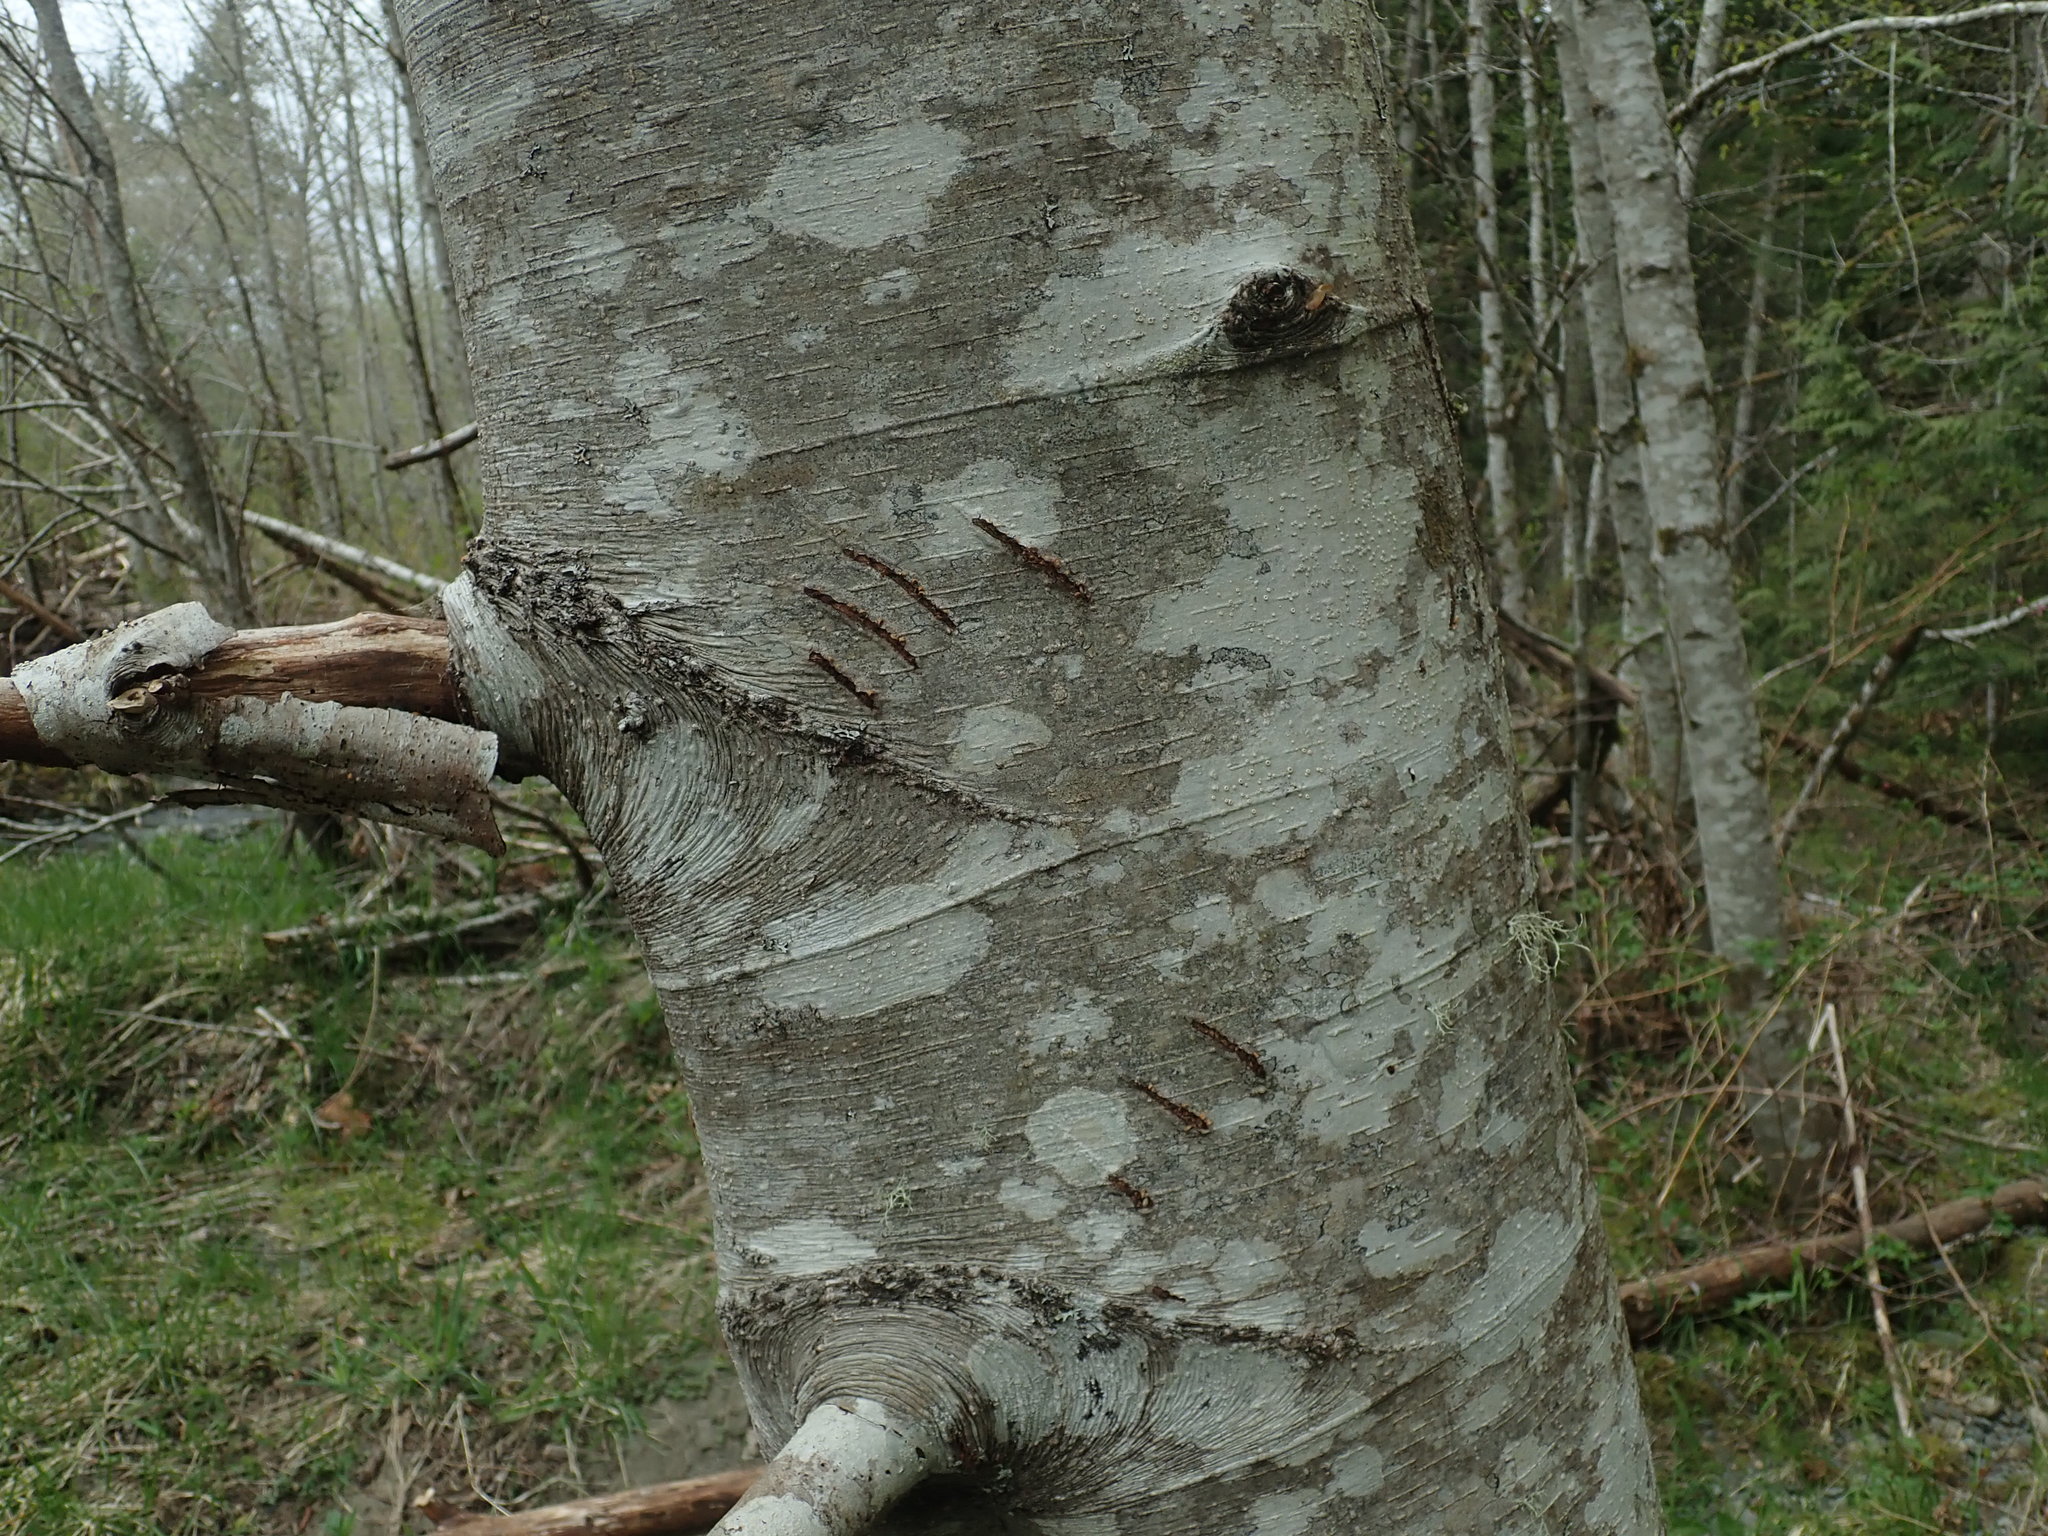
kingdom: Animalia
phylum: Chordata
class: Mammalia
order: Carnivora
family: Ursidae
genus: Ursus
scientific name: Ursus americanus
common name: American black bear
